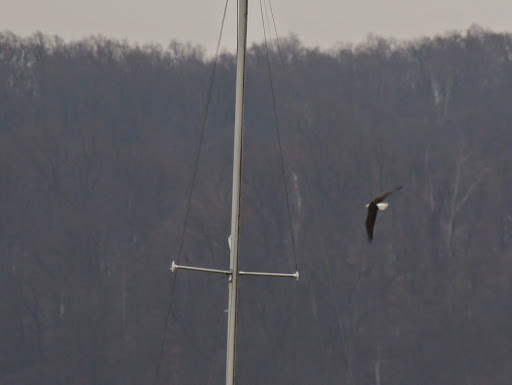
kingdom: Animalia
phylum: Chordata
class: Aves
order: Accipitriformes
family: Accipitridae
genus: Haliaeetus
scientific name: Haliaeetus leucocephalus
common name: Bald eagle
